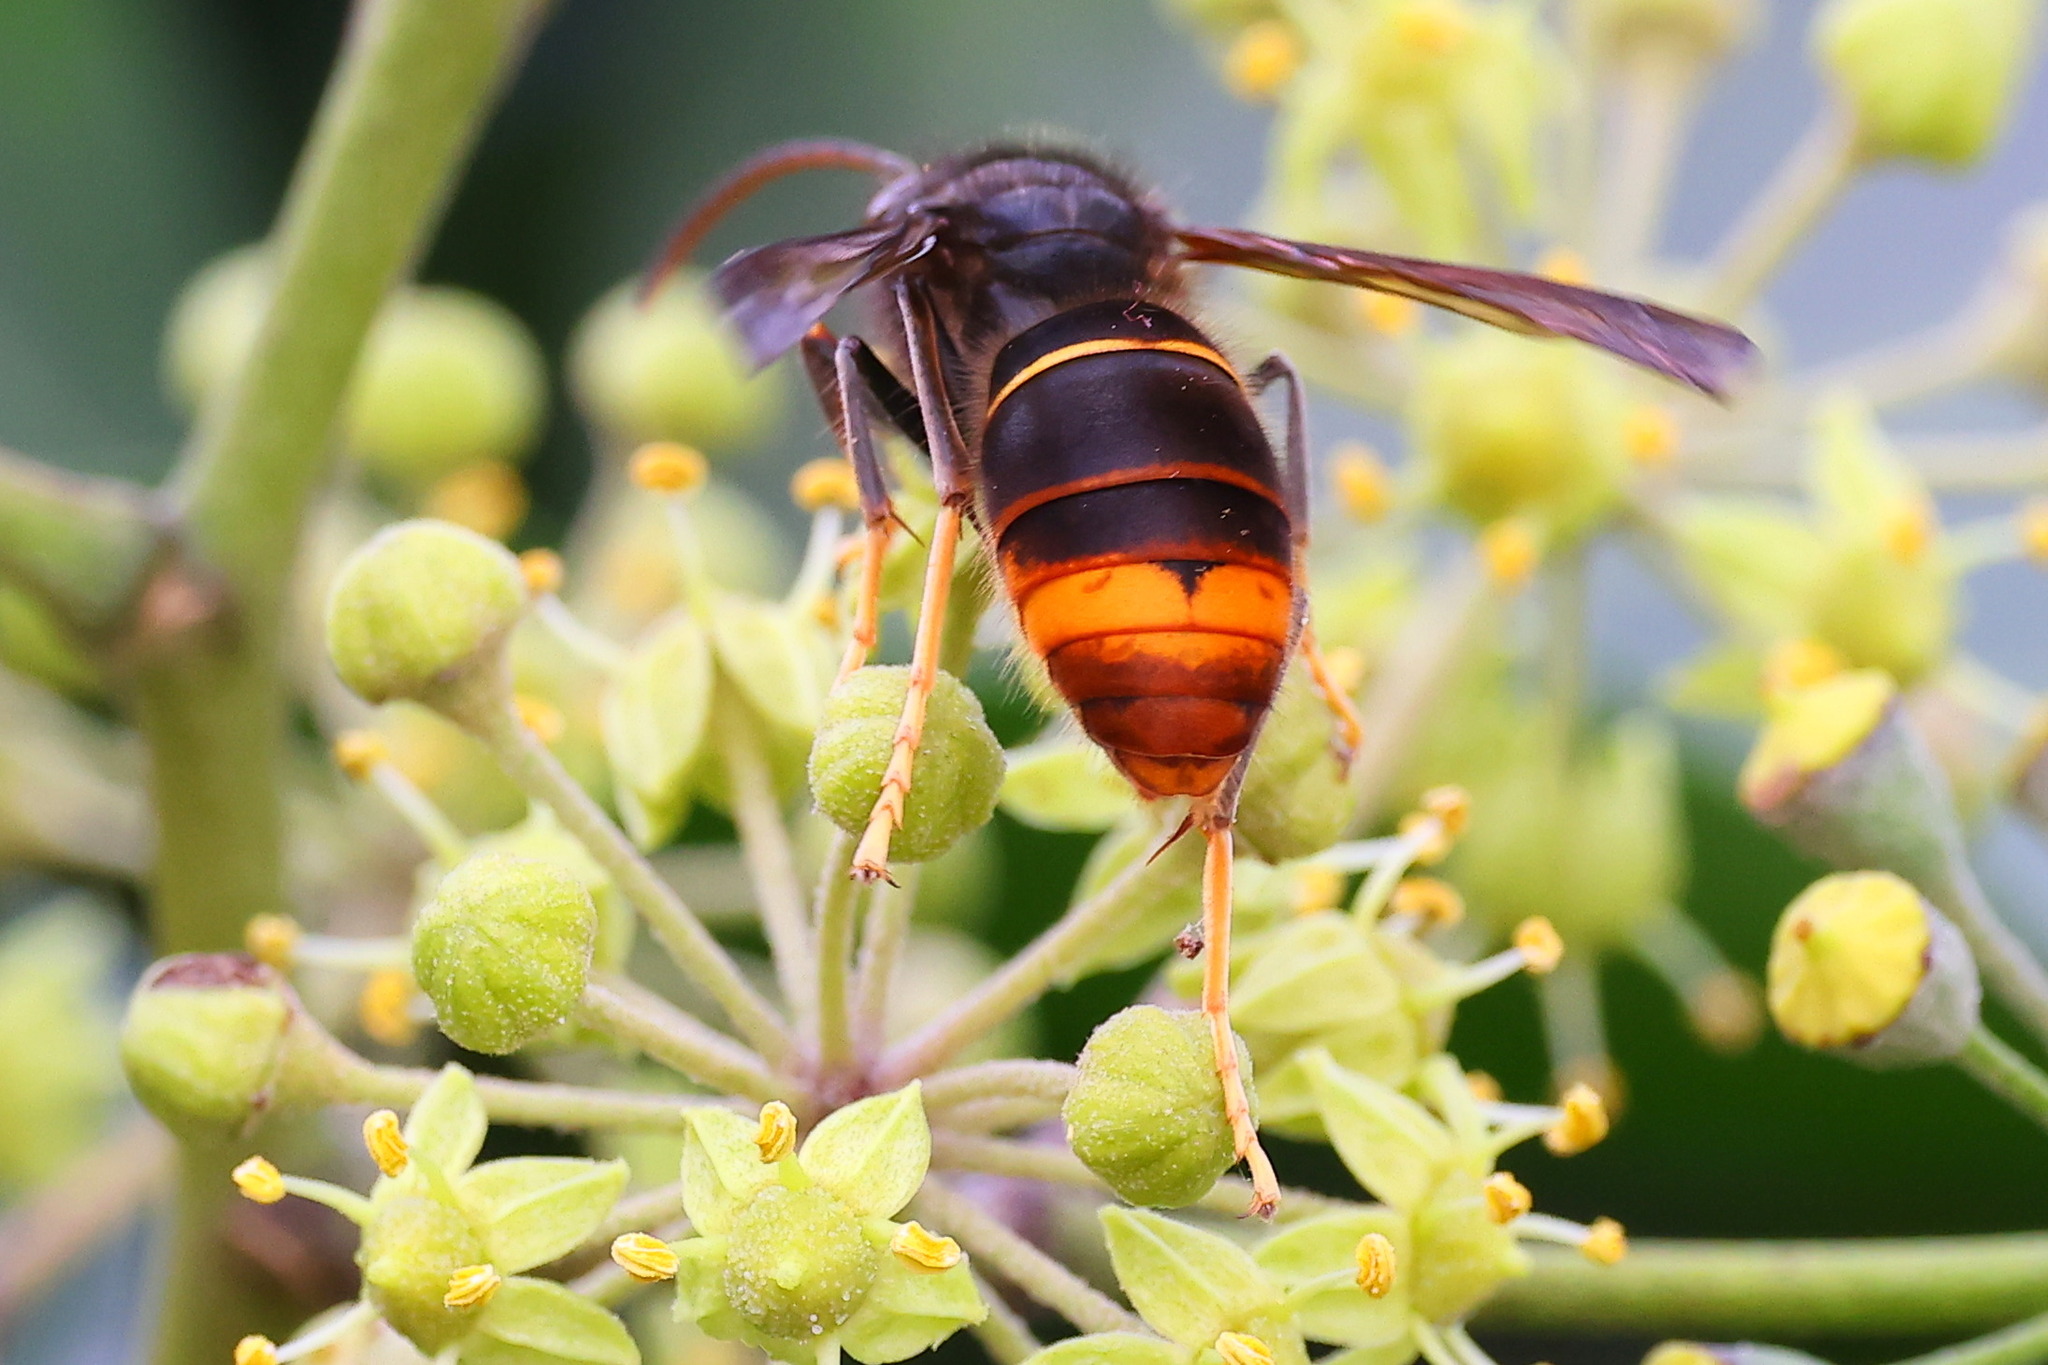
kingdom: Animalia
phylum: Arthropoda
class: Insecta
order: Hymenoptera
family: Vespidae
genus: Vespa
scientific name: Vespa velutina
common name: Asian hornet
